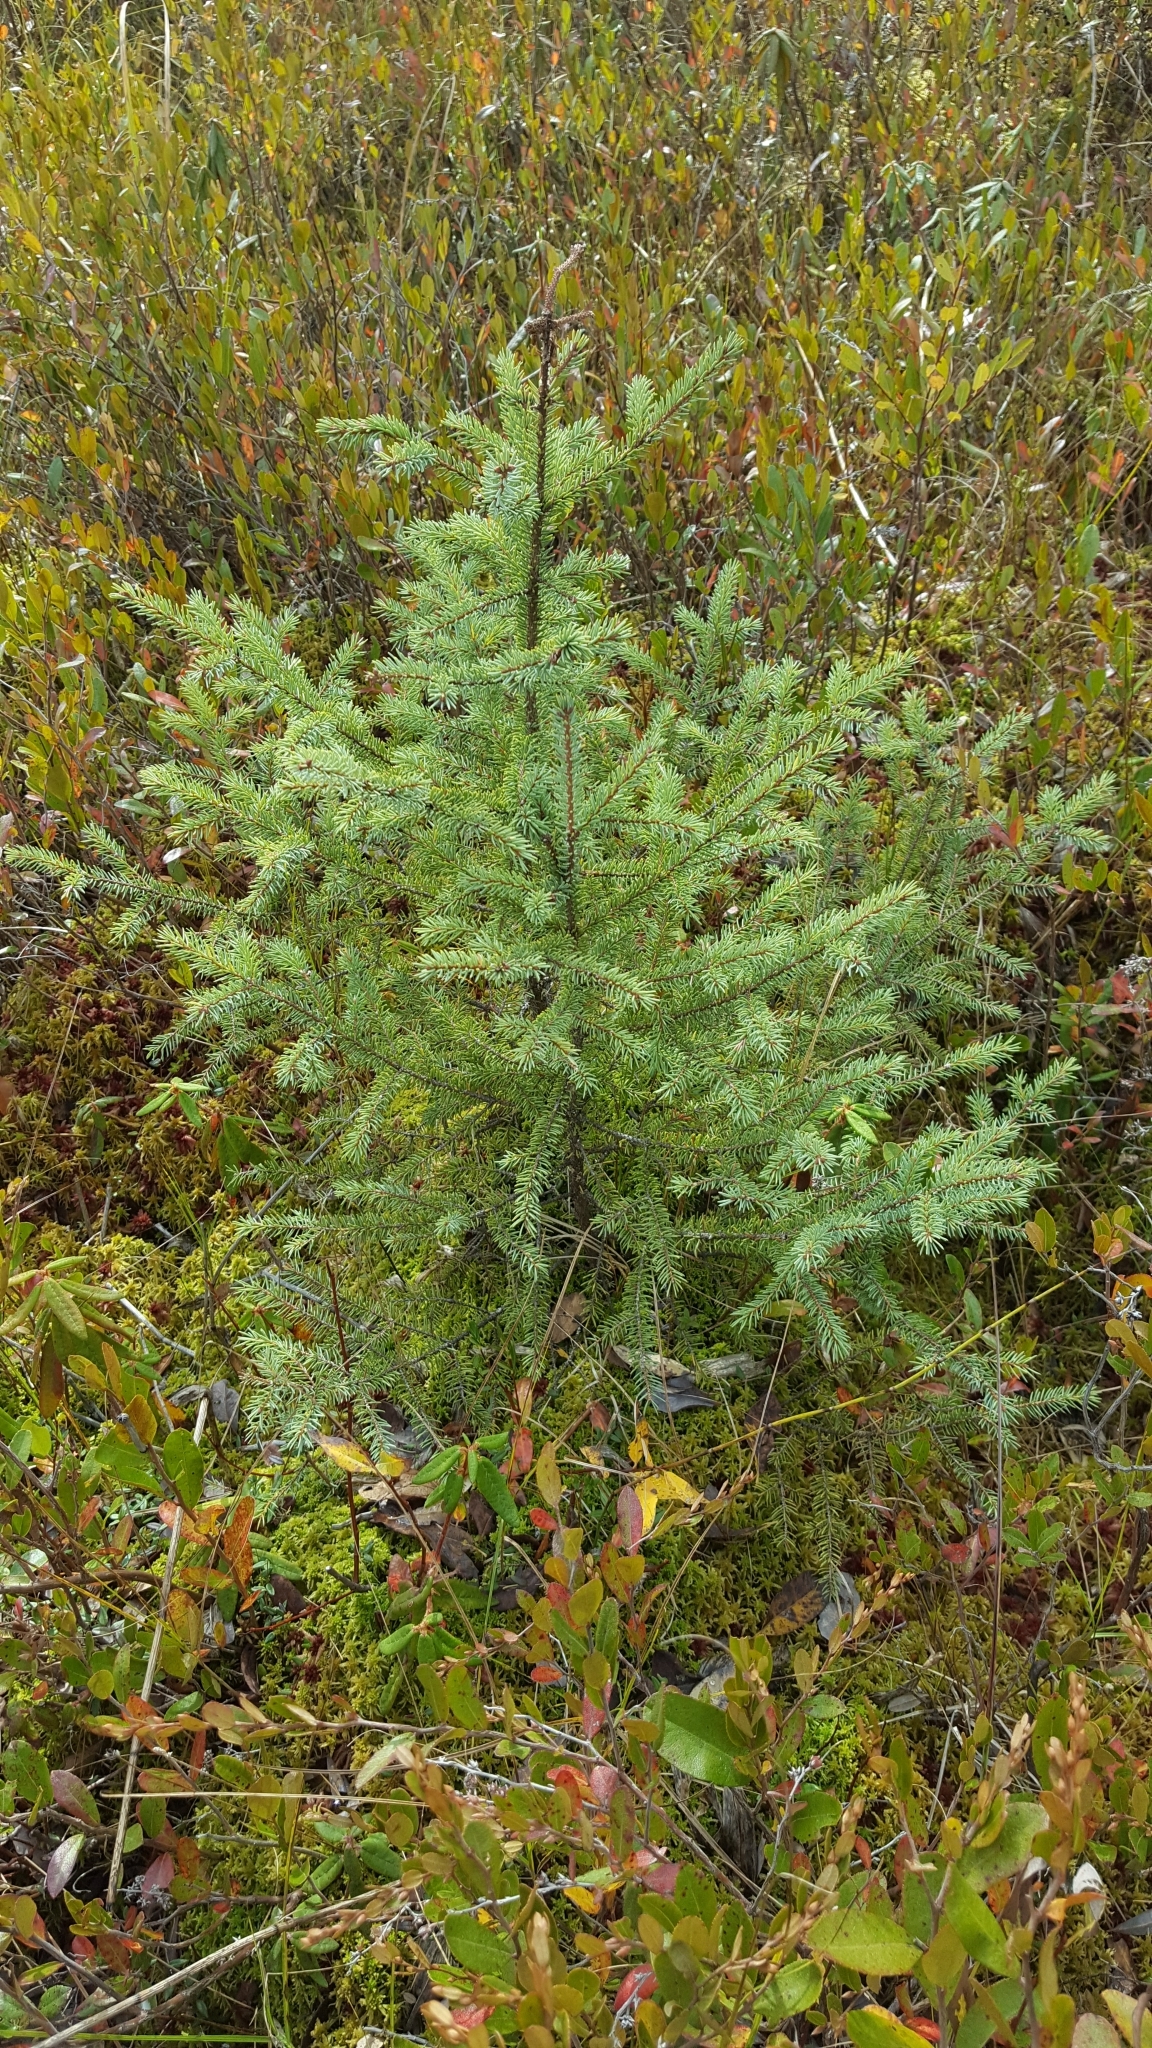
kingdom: Plantae
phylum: Tracheophyta
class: Pinopsida
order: Pinales
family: Pinaceae
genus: Picea
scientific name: Picea mariana
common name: Black spruce
